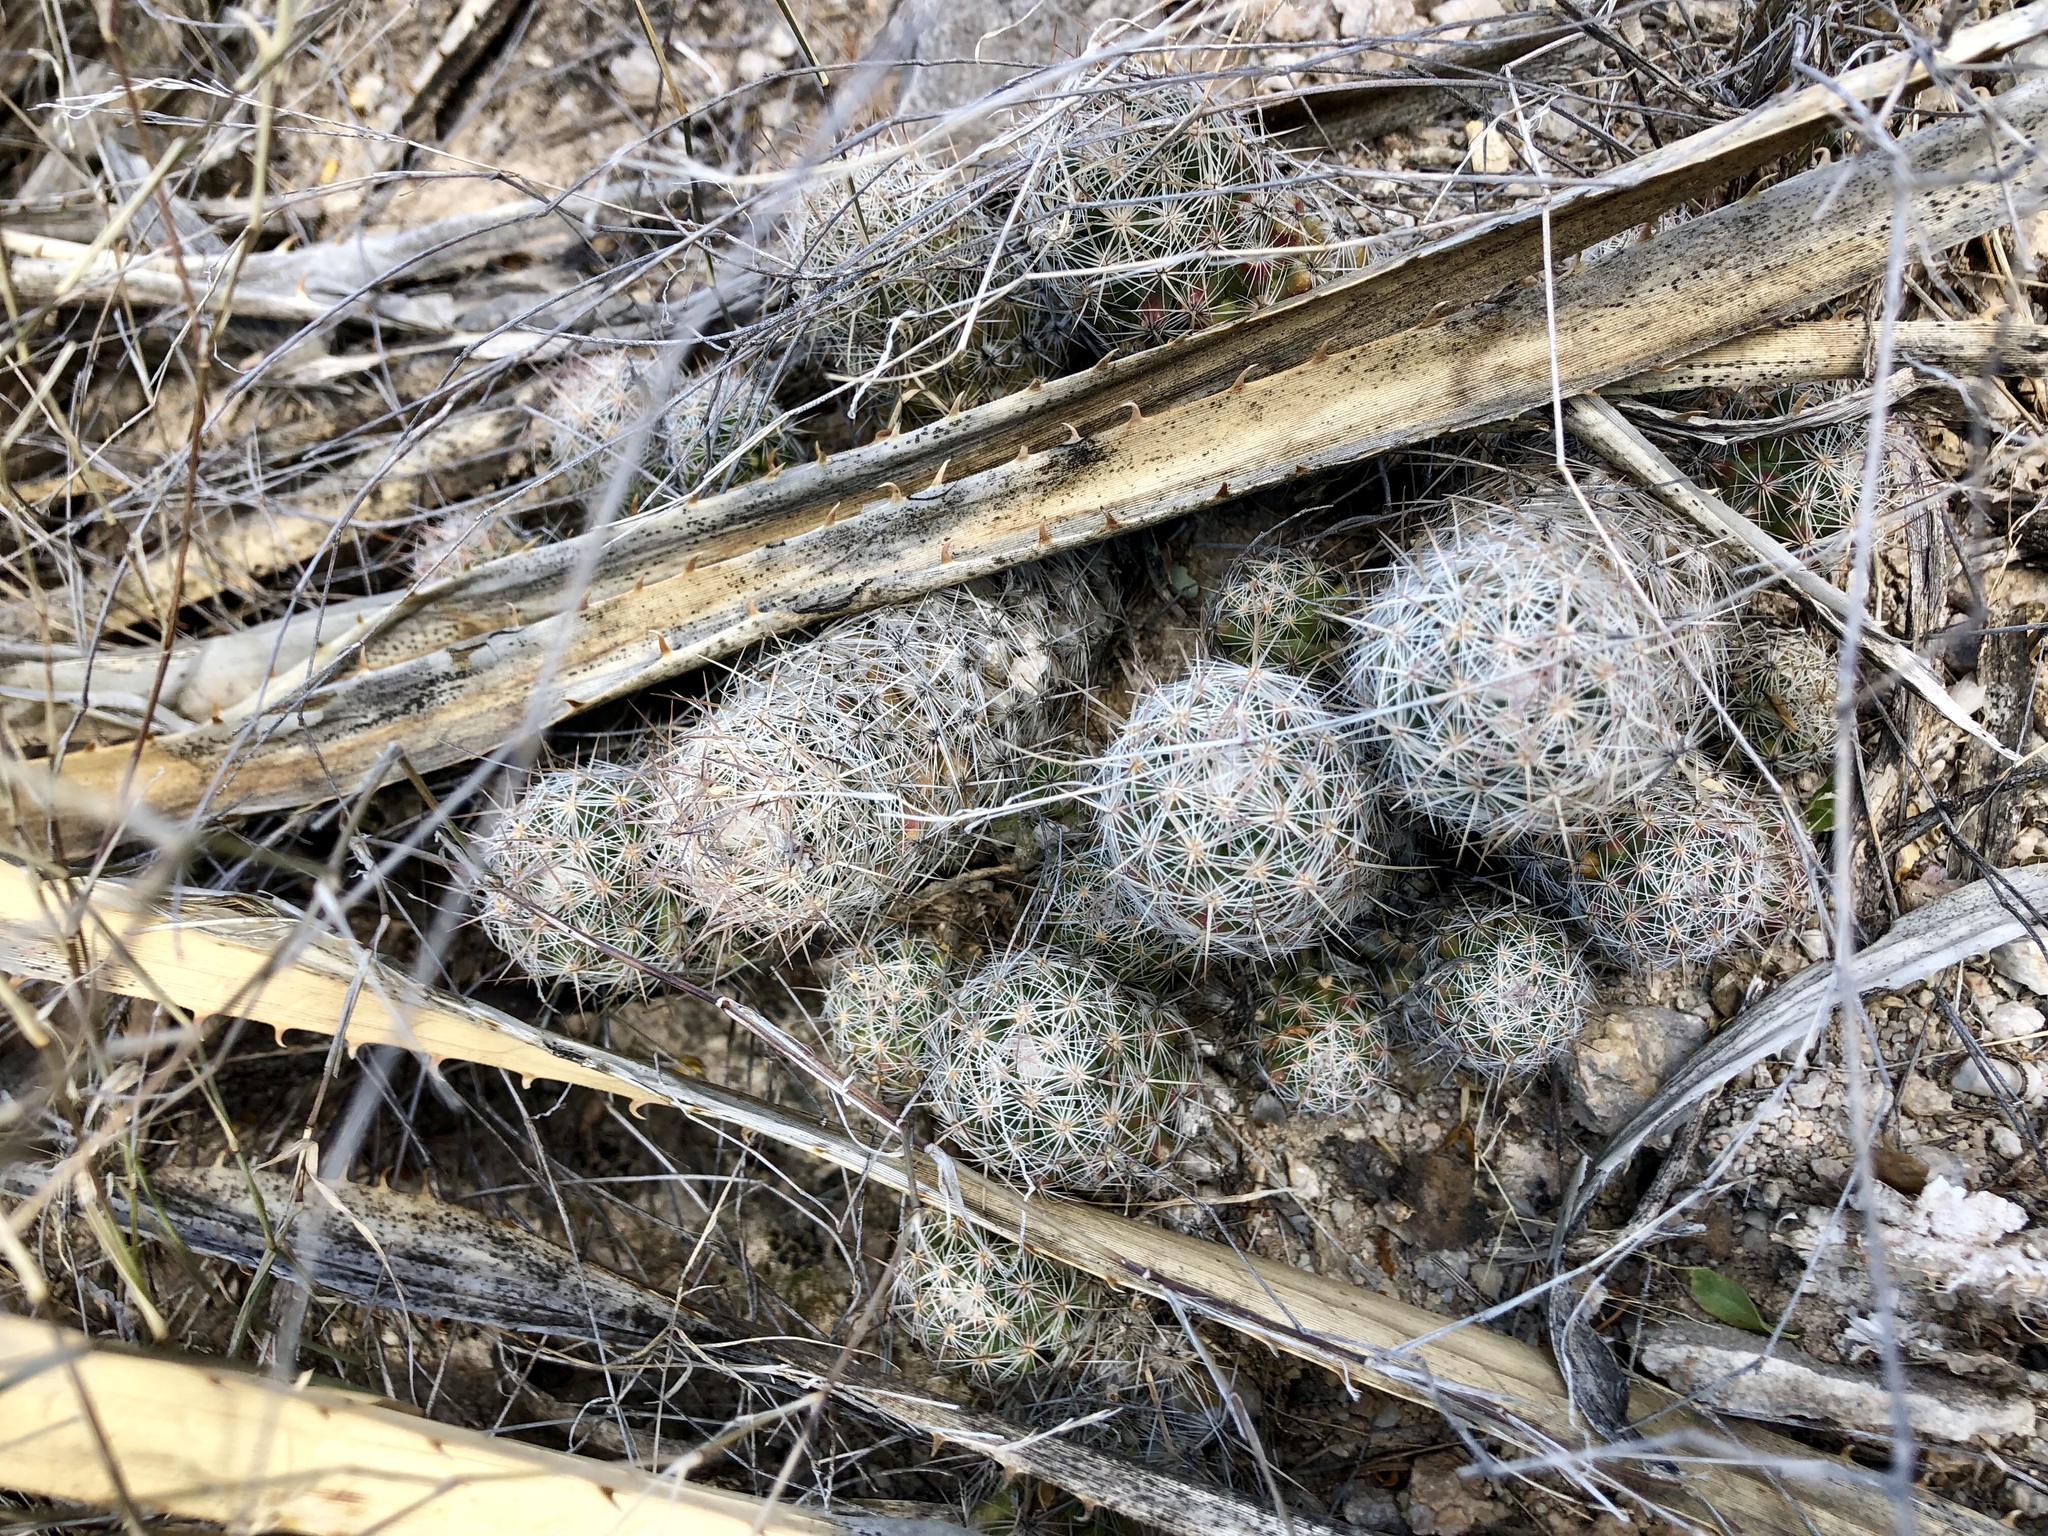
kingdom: Plantae
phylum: Tracheophyta
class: Magnoliopsida
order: Caryophyllales
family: Cactaceae
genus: Pelecyphora
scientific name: Pelecyphora sneedii
